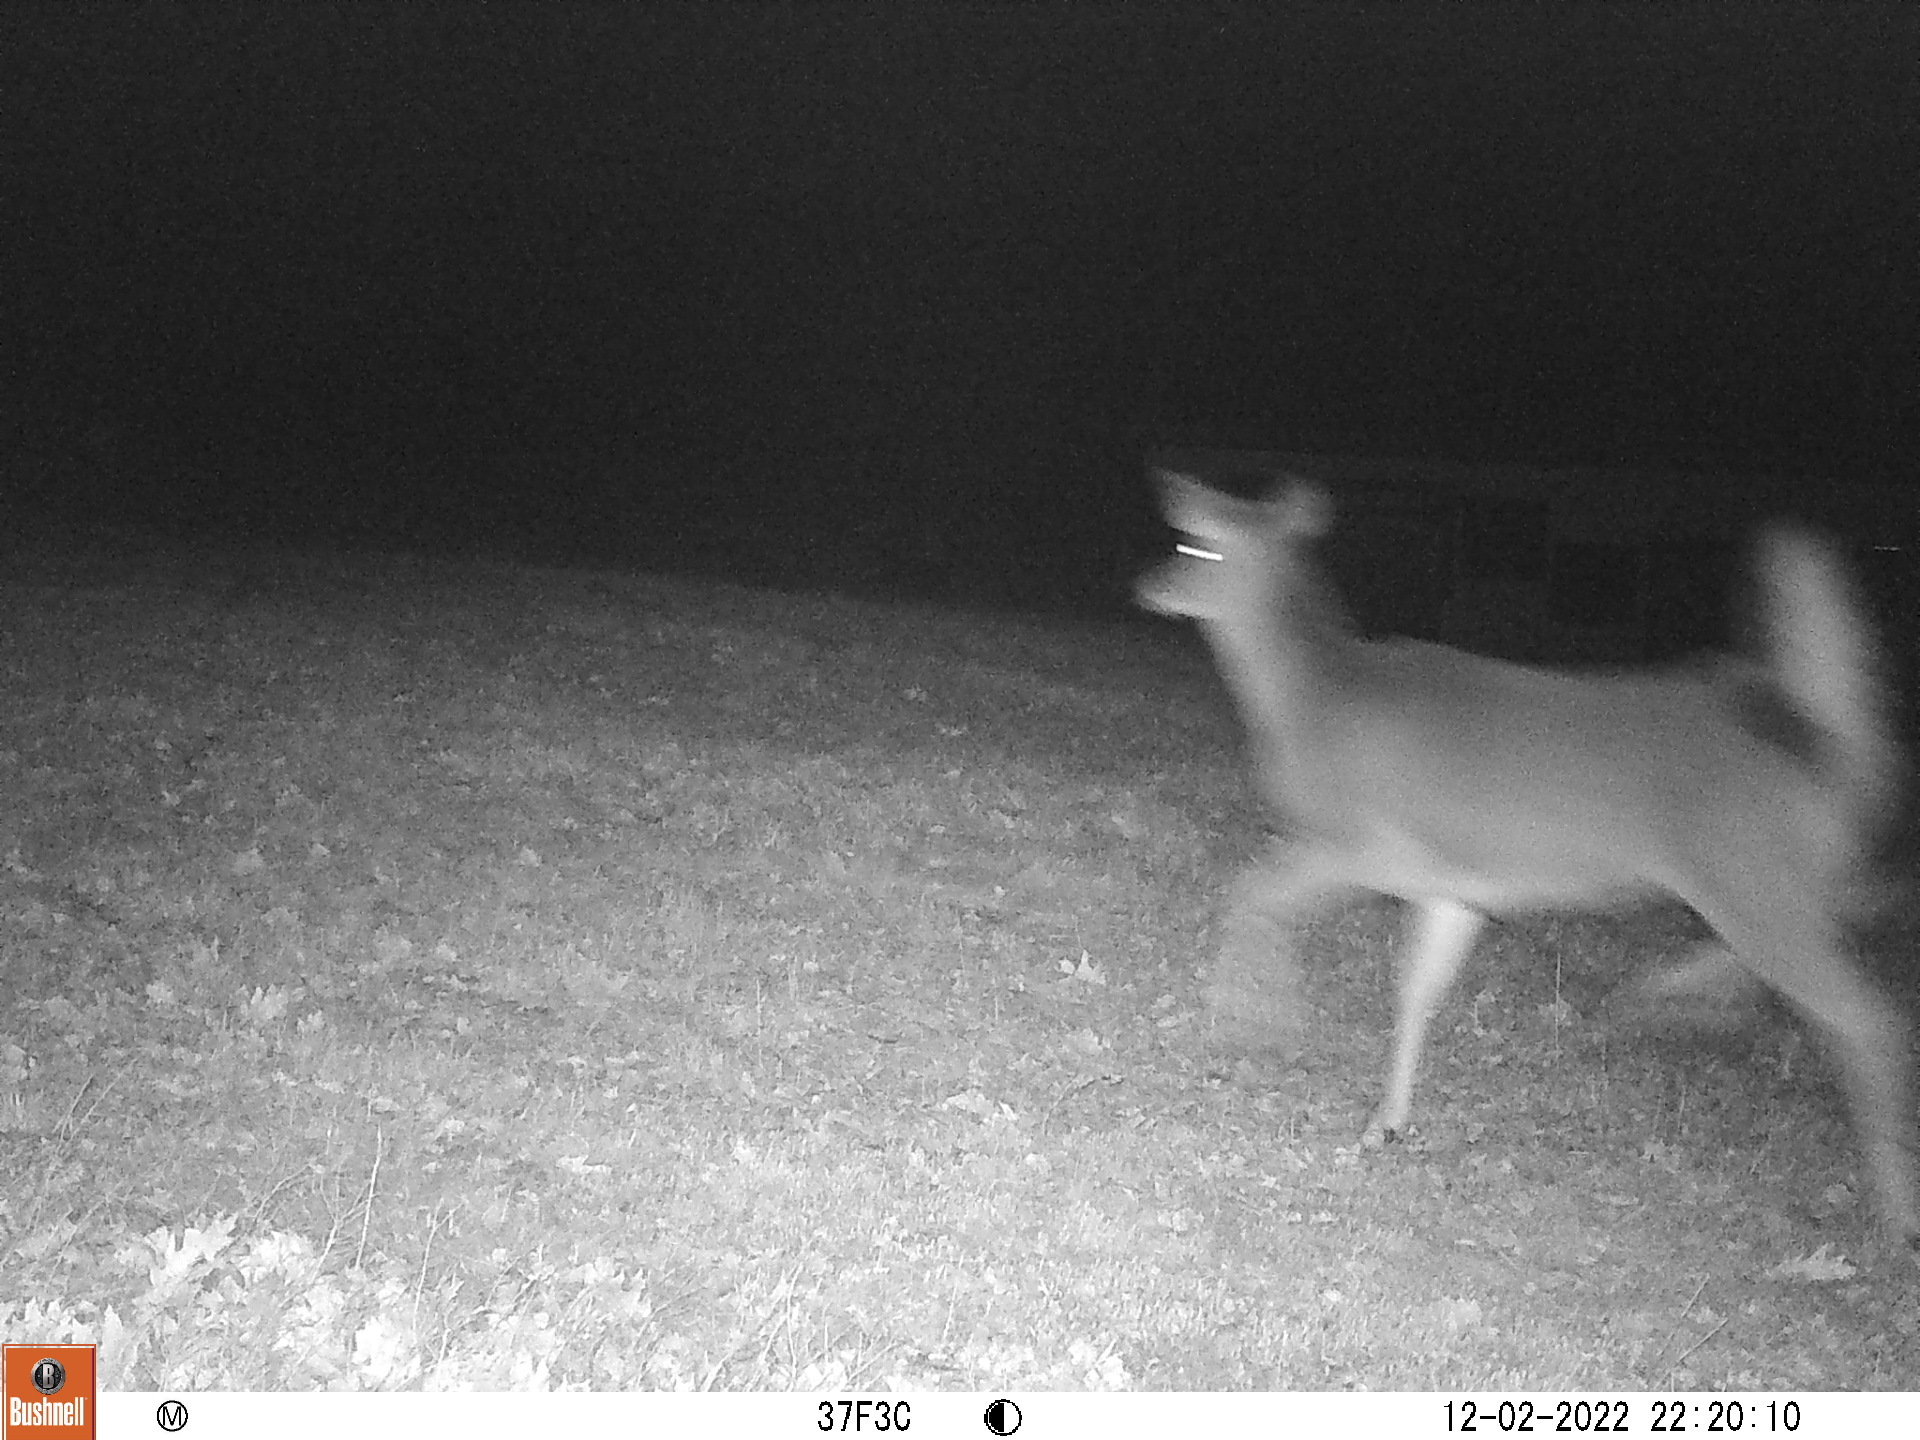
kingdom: Animalia
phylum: Chordata
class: Mammalia
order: Artiodactyla
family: Cervidae
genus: Odocoileus
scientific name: Odocoileus virginianus
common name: White-tailed deer
